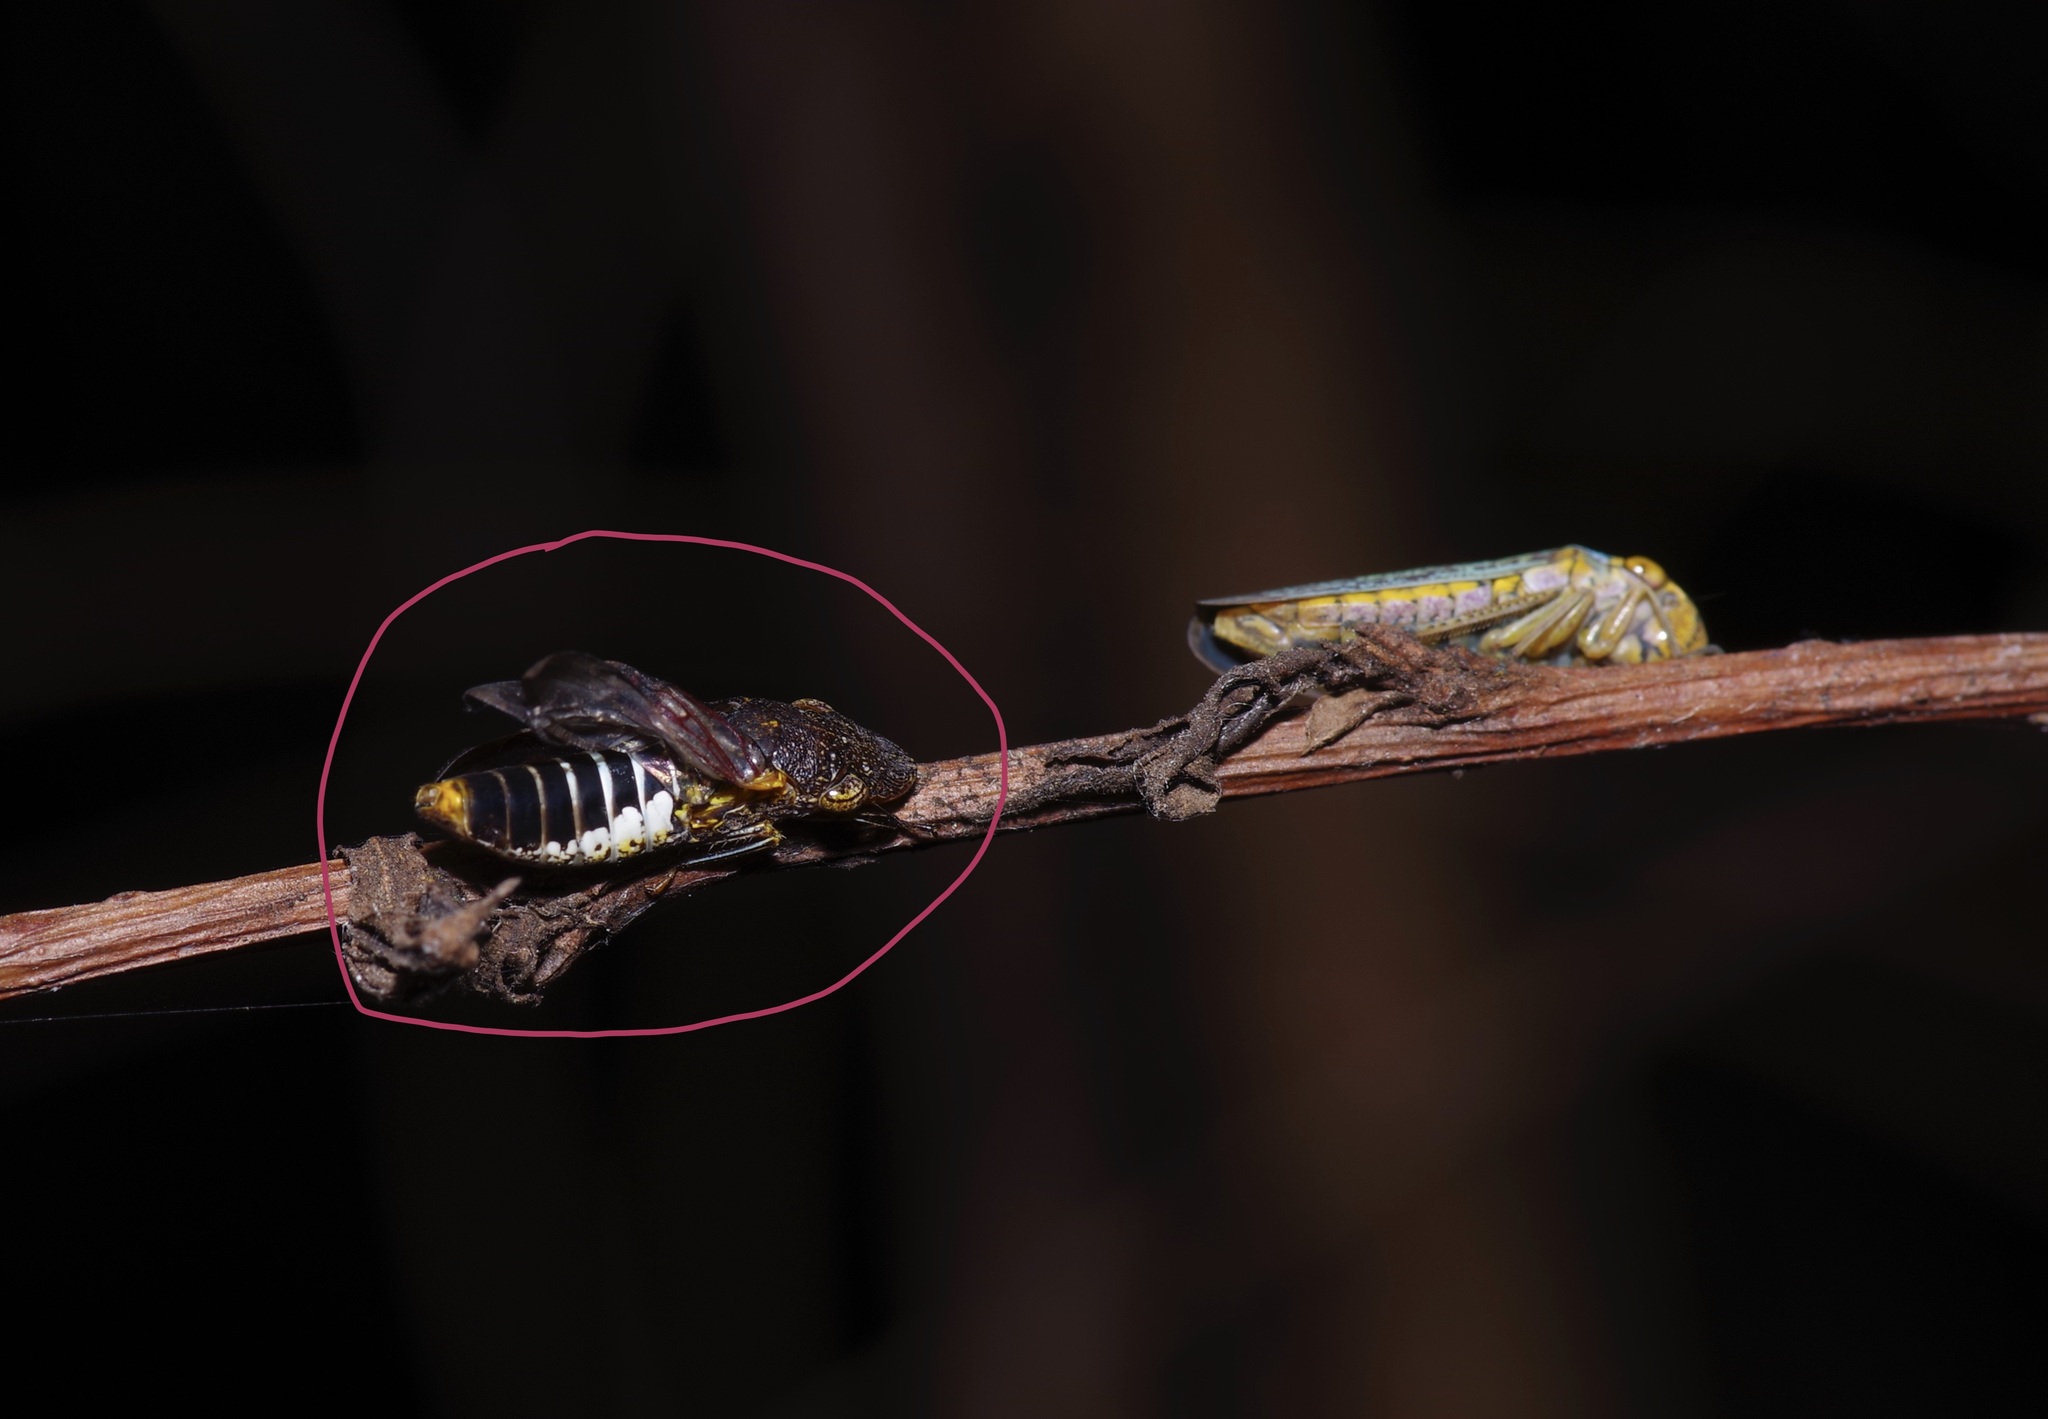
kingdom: Animalia
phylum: Arthropoda
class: Insecta
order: Hemiptera
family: Cicadellidae
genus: Homalodisca
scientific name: Homalodisca vitripennis
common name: Glassy-winged sharpshooter
